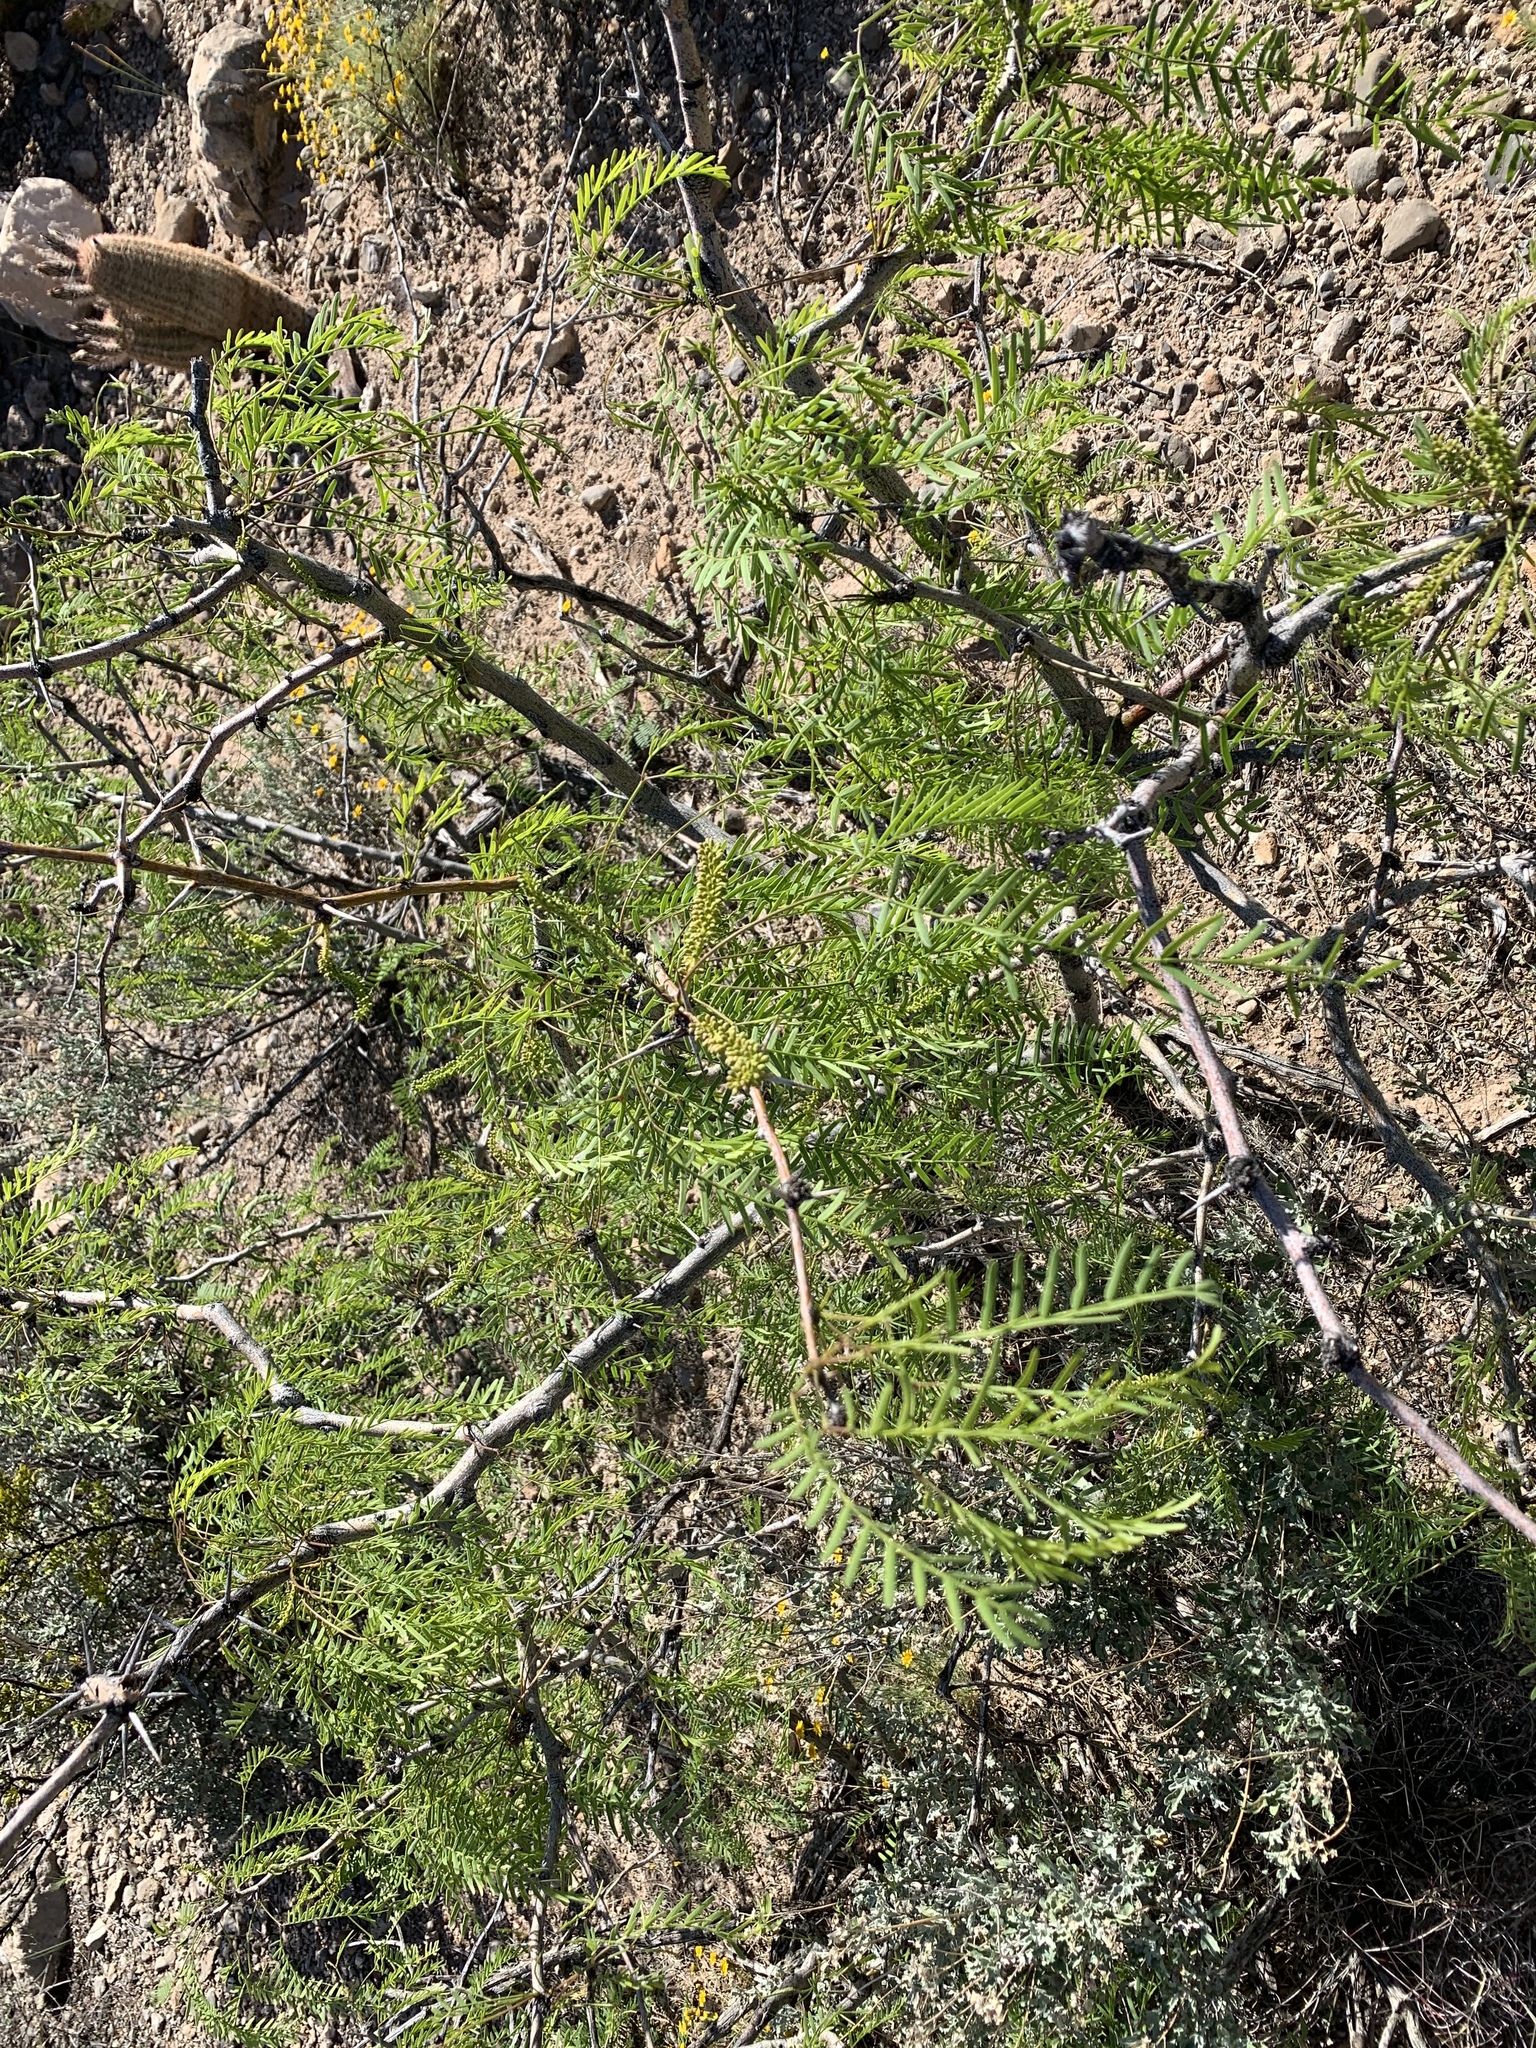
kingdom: Plantae
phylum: Tracheophyta
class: Magnoliopsida
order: Fabales
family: Fabaceae
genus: Prosopis
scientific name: Prosopis glandulosa
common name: Honey mesquite
